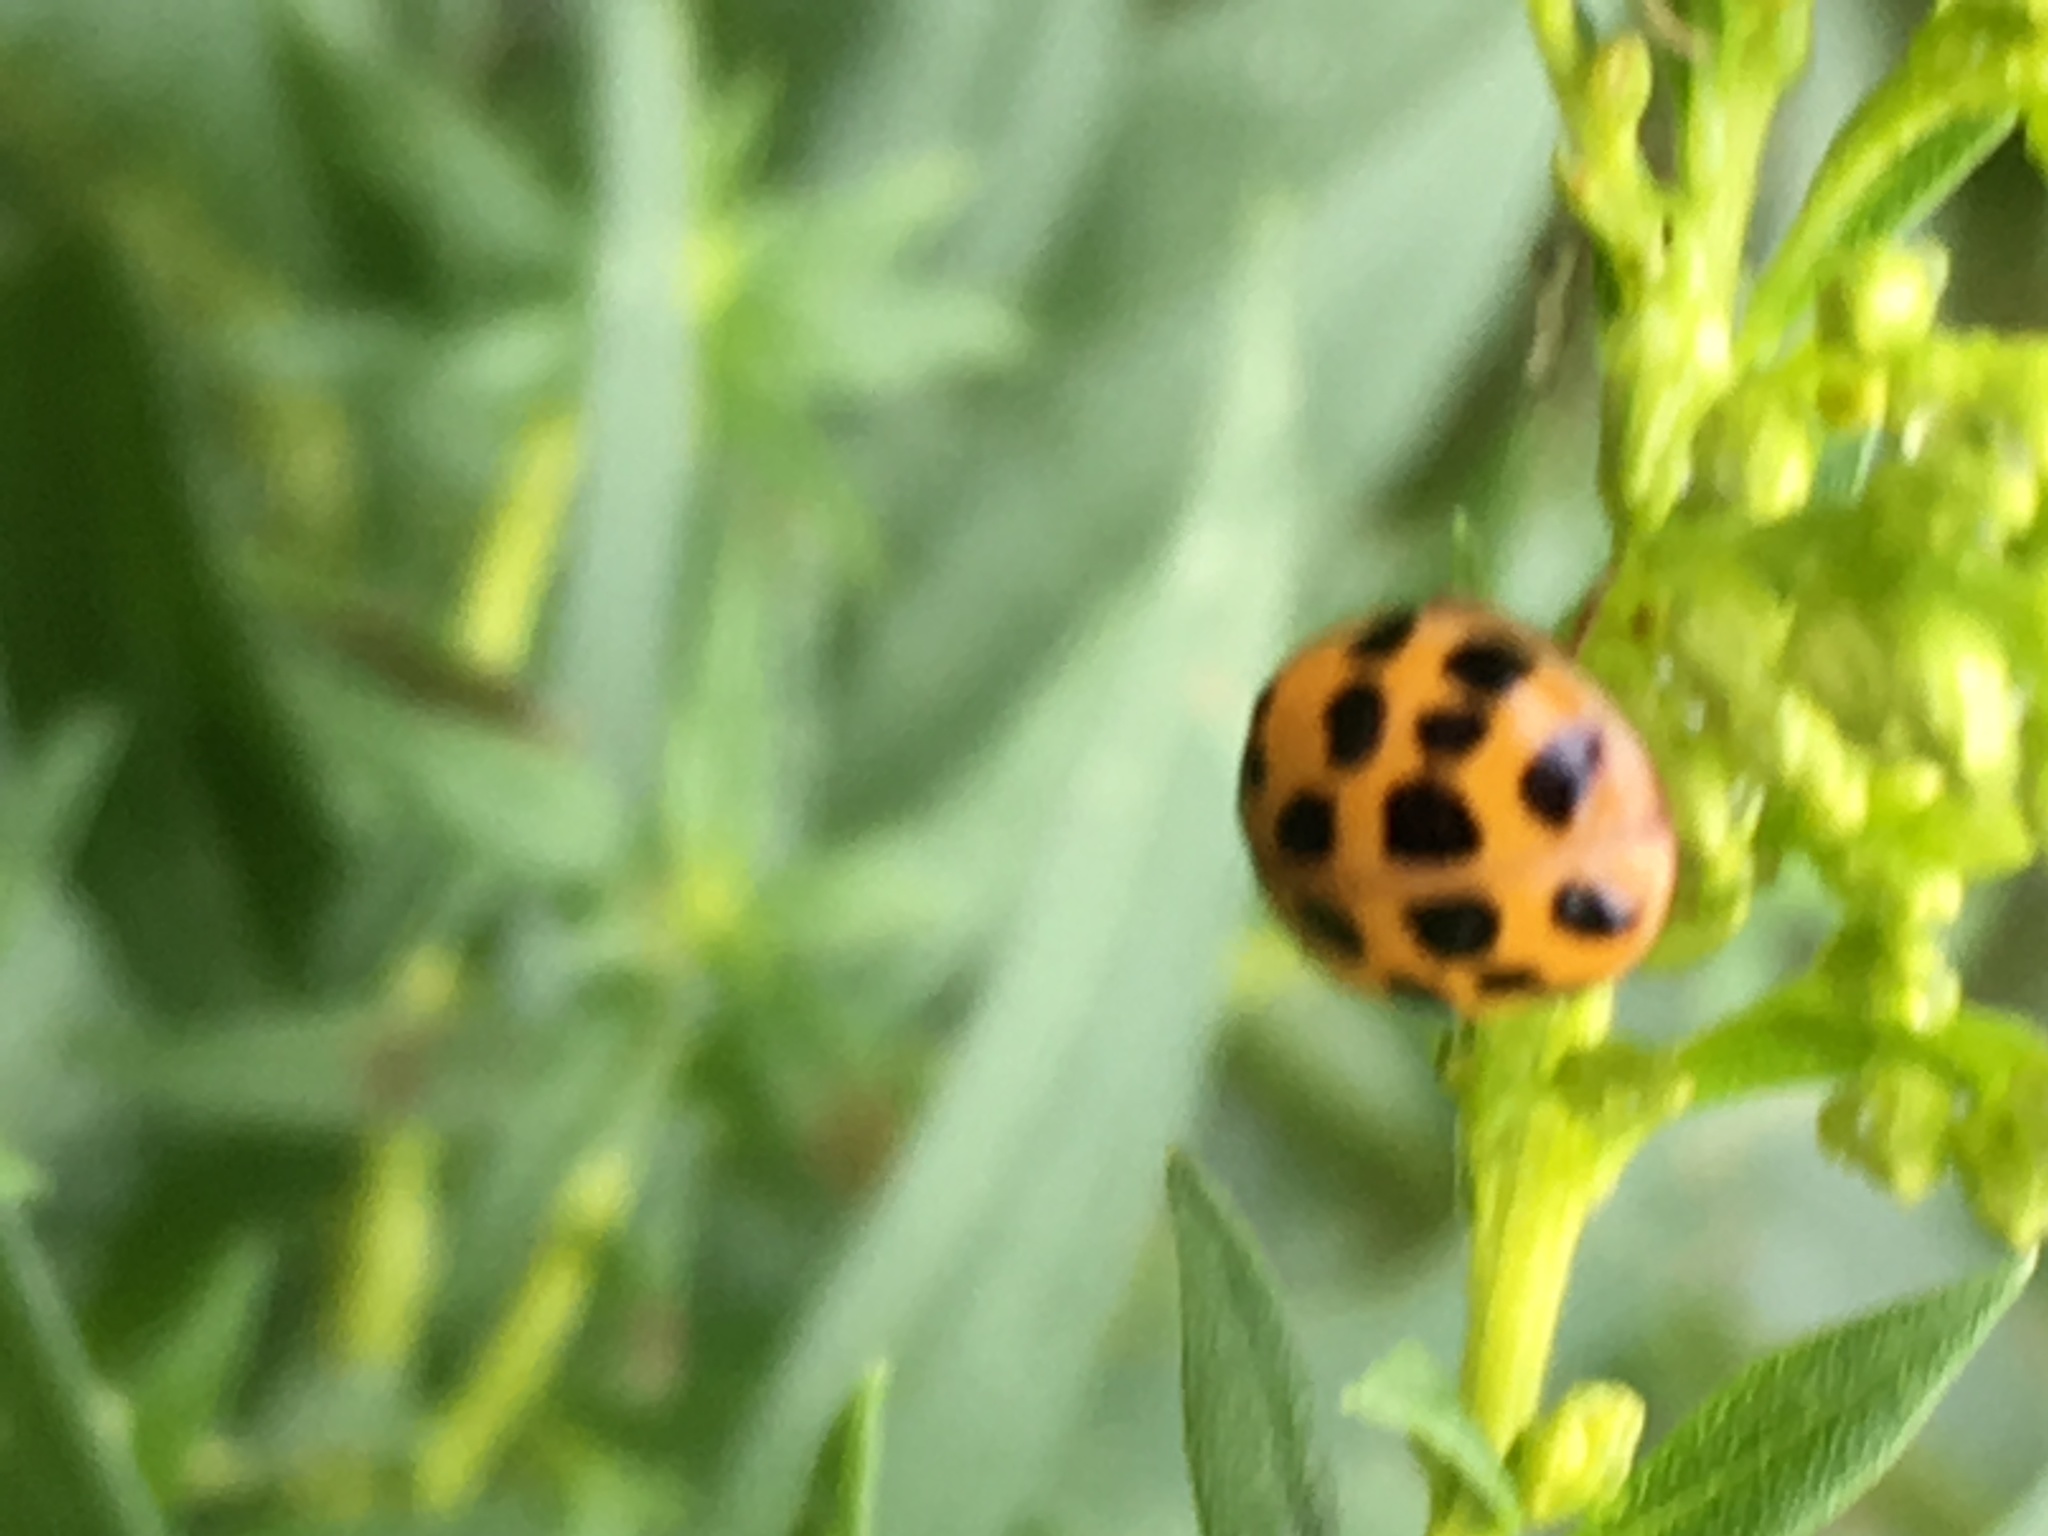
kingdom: Animalia
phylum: Arthropoda
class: Insecta
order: Coleoptera
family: Coccinellidae
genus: Harmonia
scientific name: Harmonia axyridis
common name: Harlequin ladybird
